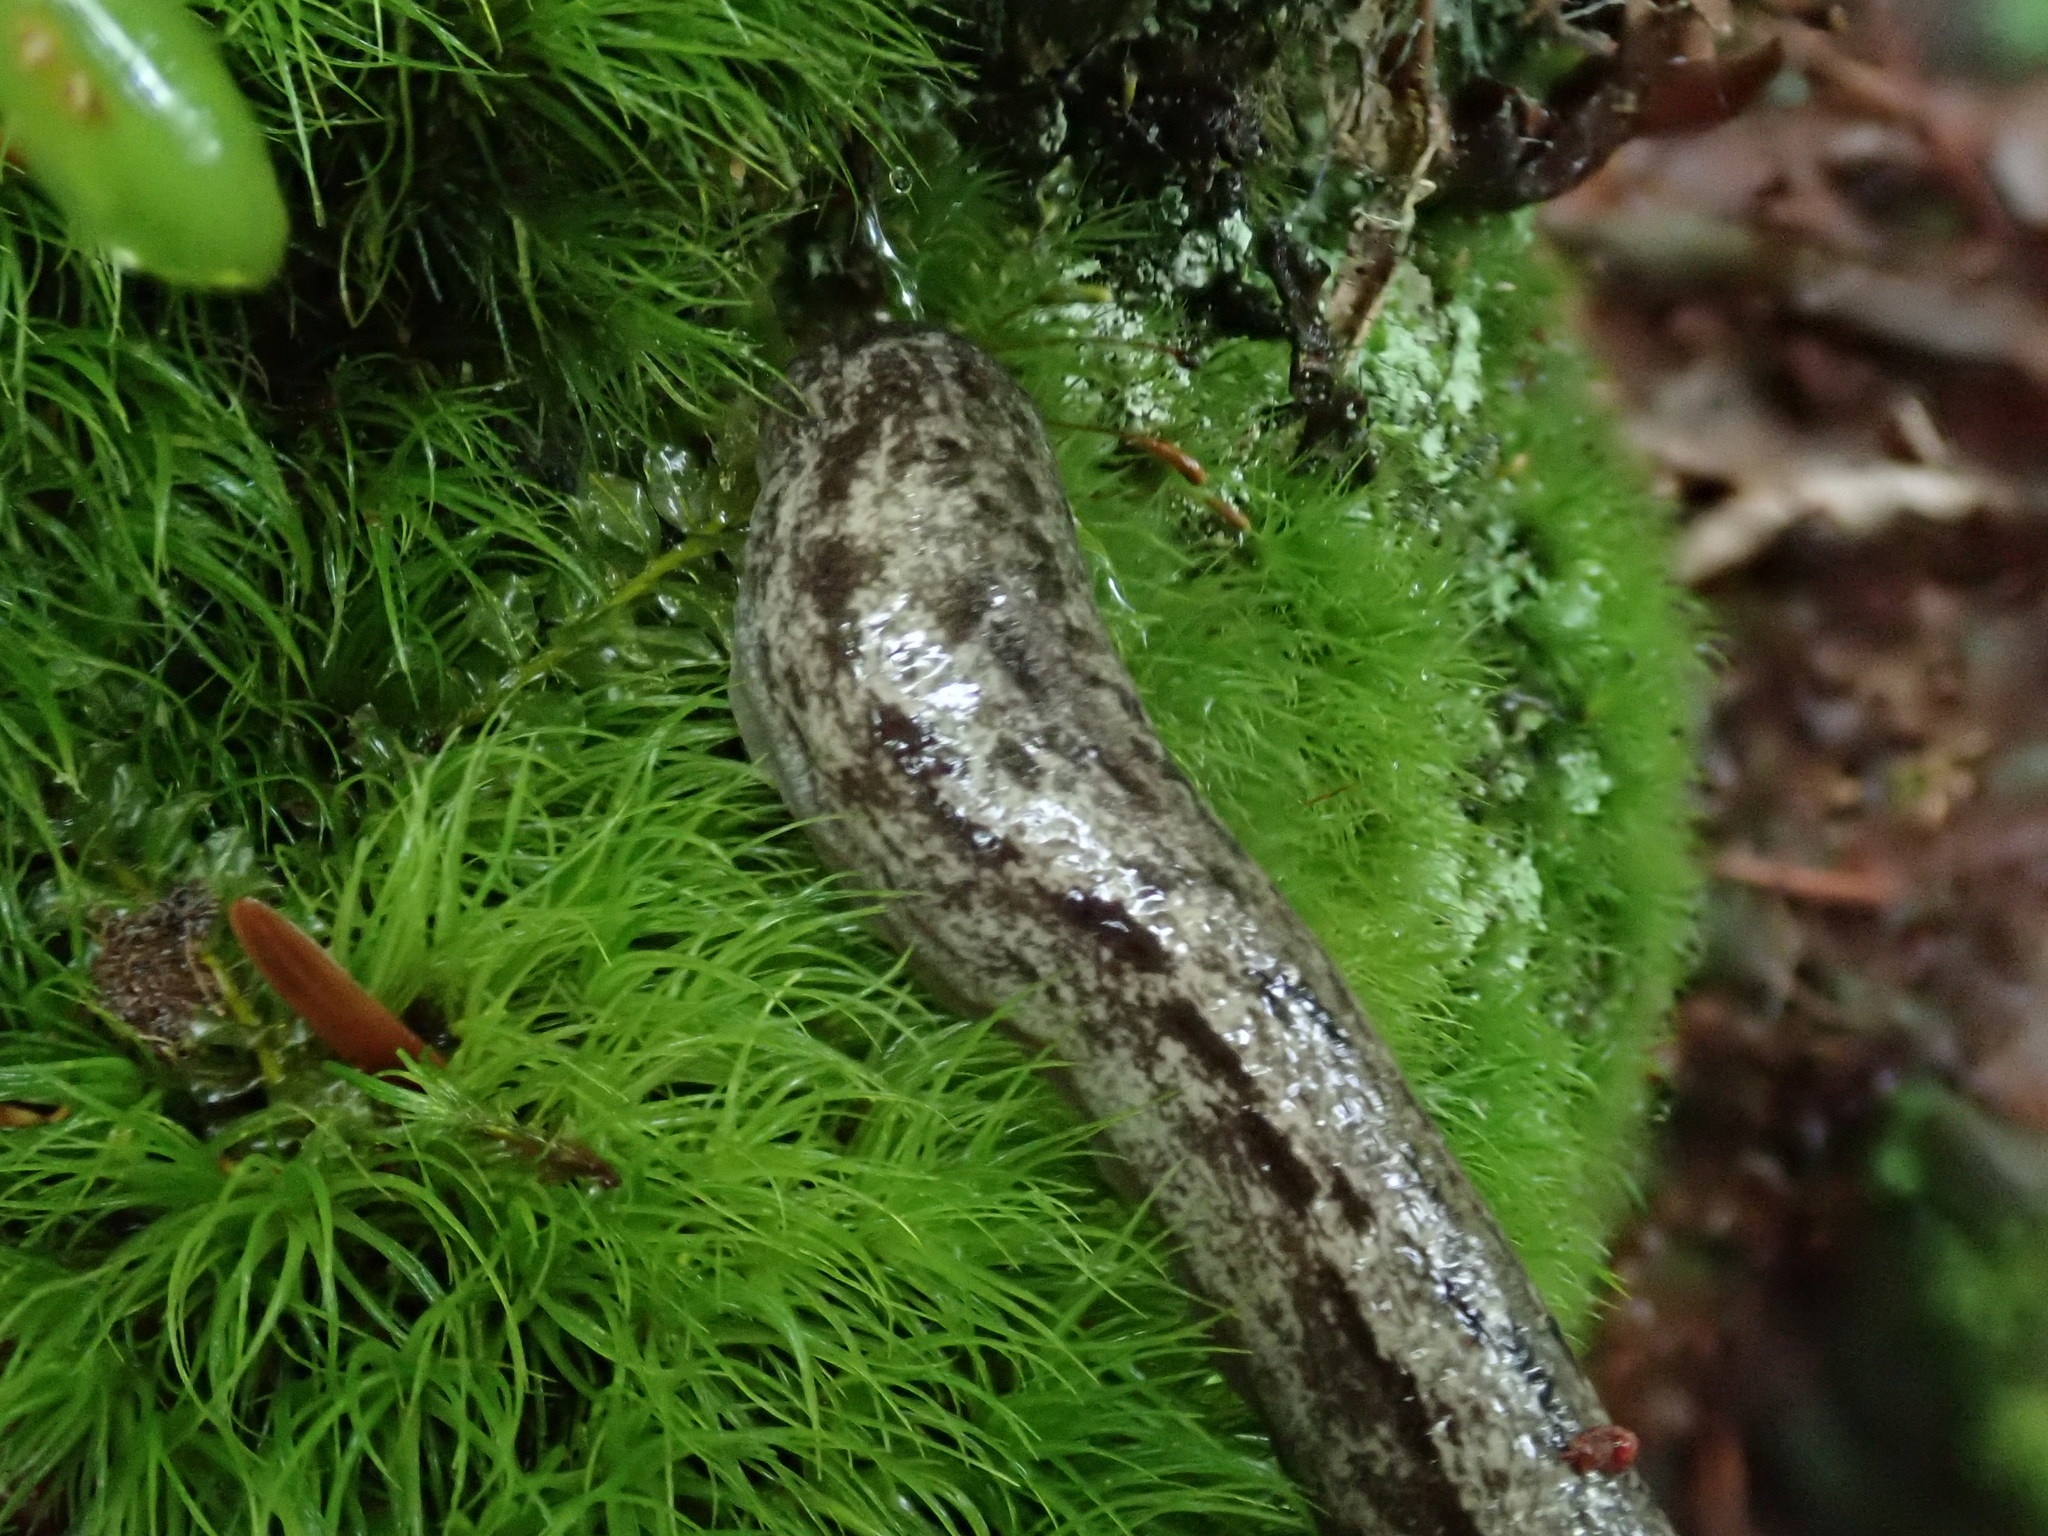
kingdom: Animalia
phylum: Mollusca
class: Gastropoda
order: Stylommatophora
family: Philomycidae
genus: Megapallifera
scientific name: Megapallifera mutabilis
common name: Changeable mantleslug
